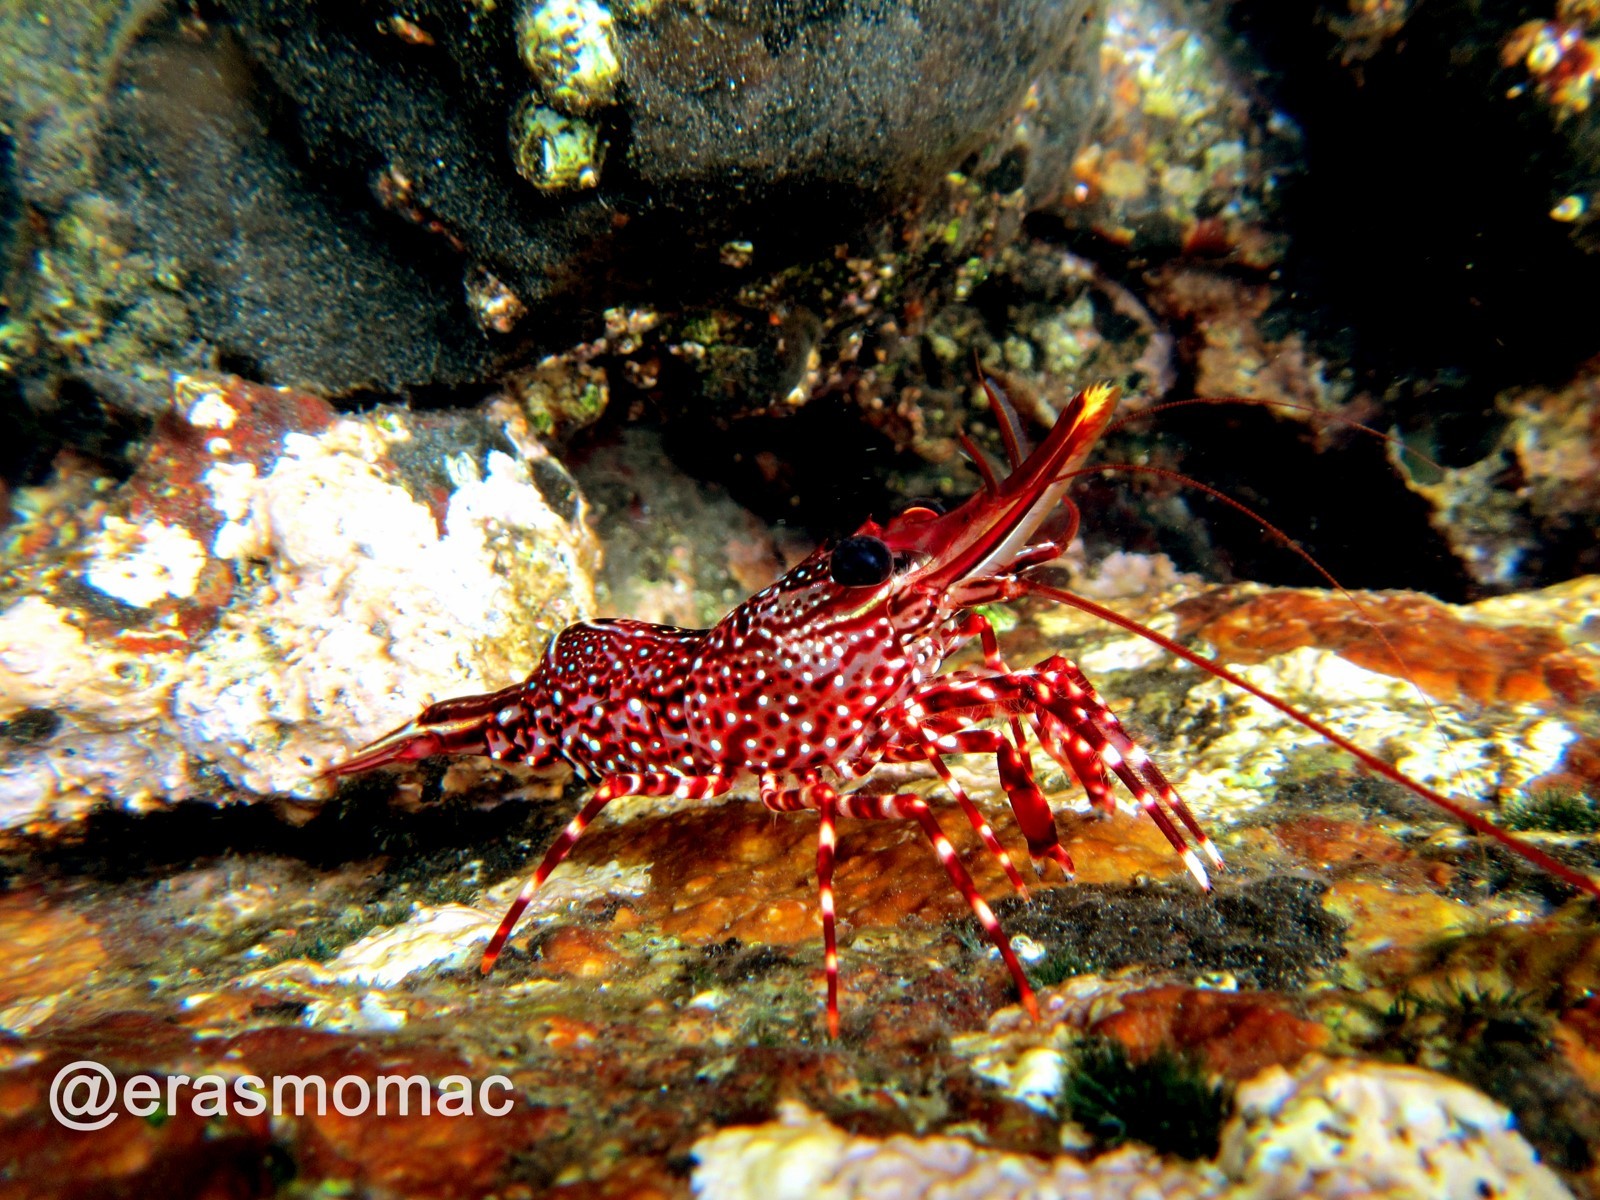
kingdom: Animalia
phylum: Arthropoda
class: Malacostraca
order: Decapoda
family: Rhynchocinetidae
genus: Rhynchocinetes
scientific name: Rhynchocinetes typus
